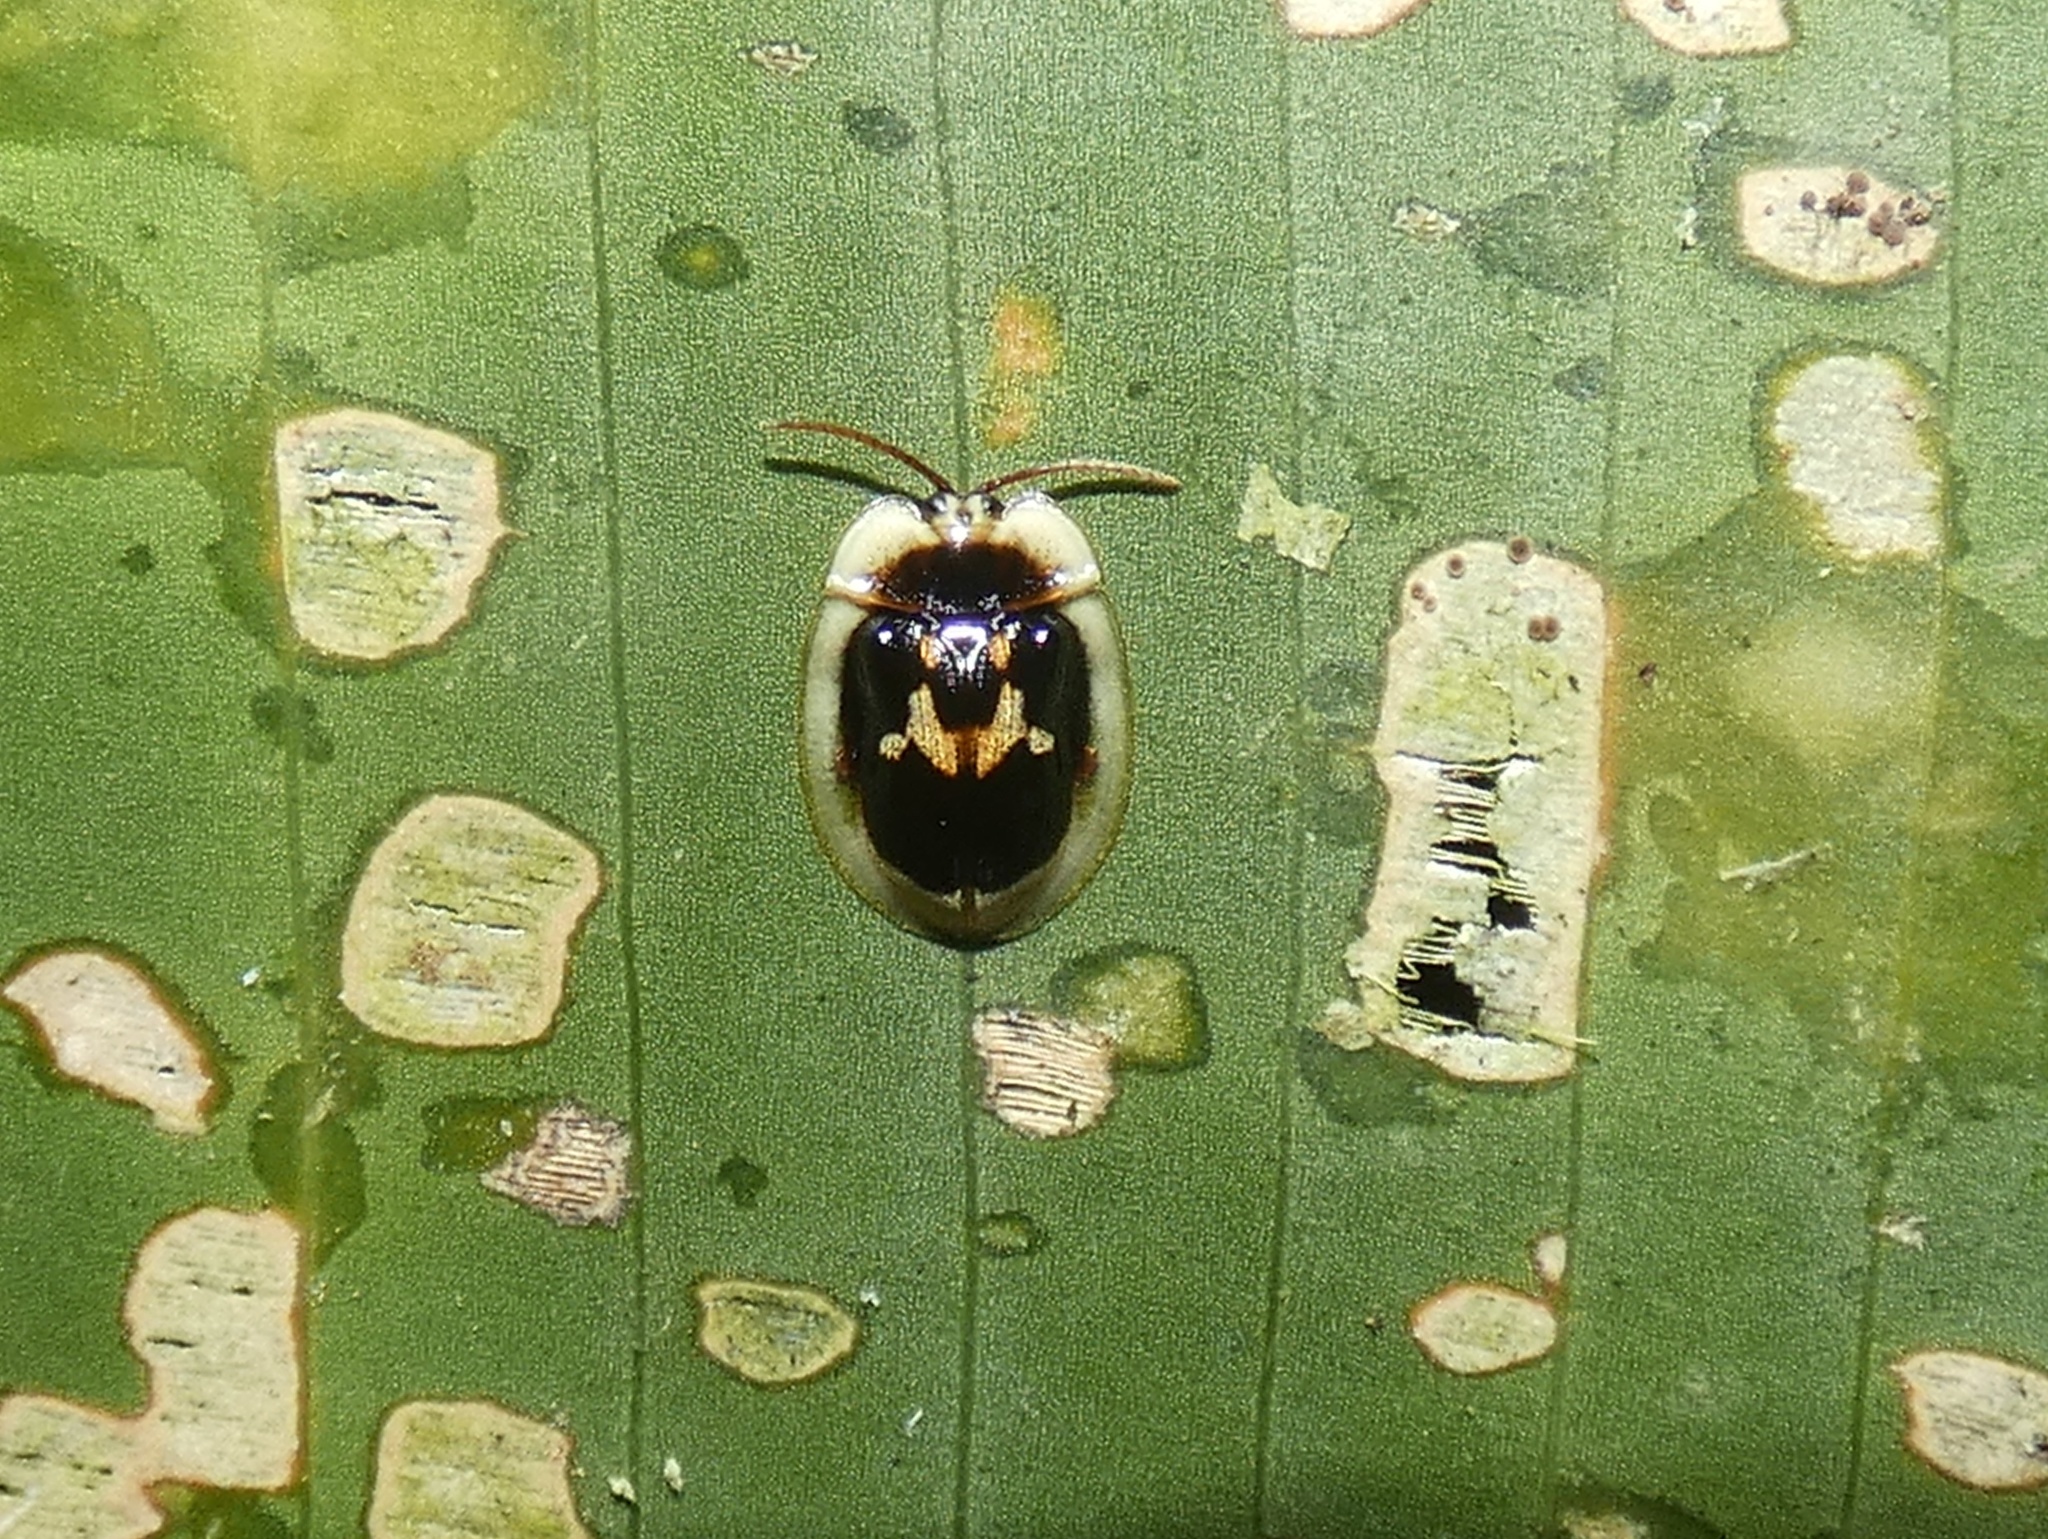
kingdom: Animalia
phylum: Arthropoda
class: Insecta
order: Coleoptera
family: Chrysomelidae
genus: Aslamidium
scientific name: Aslamidium semicirculare
